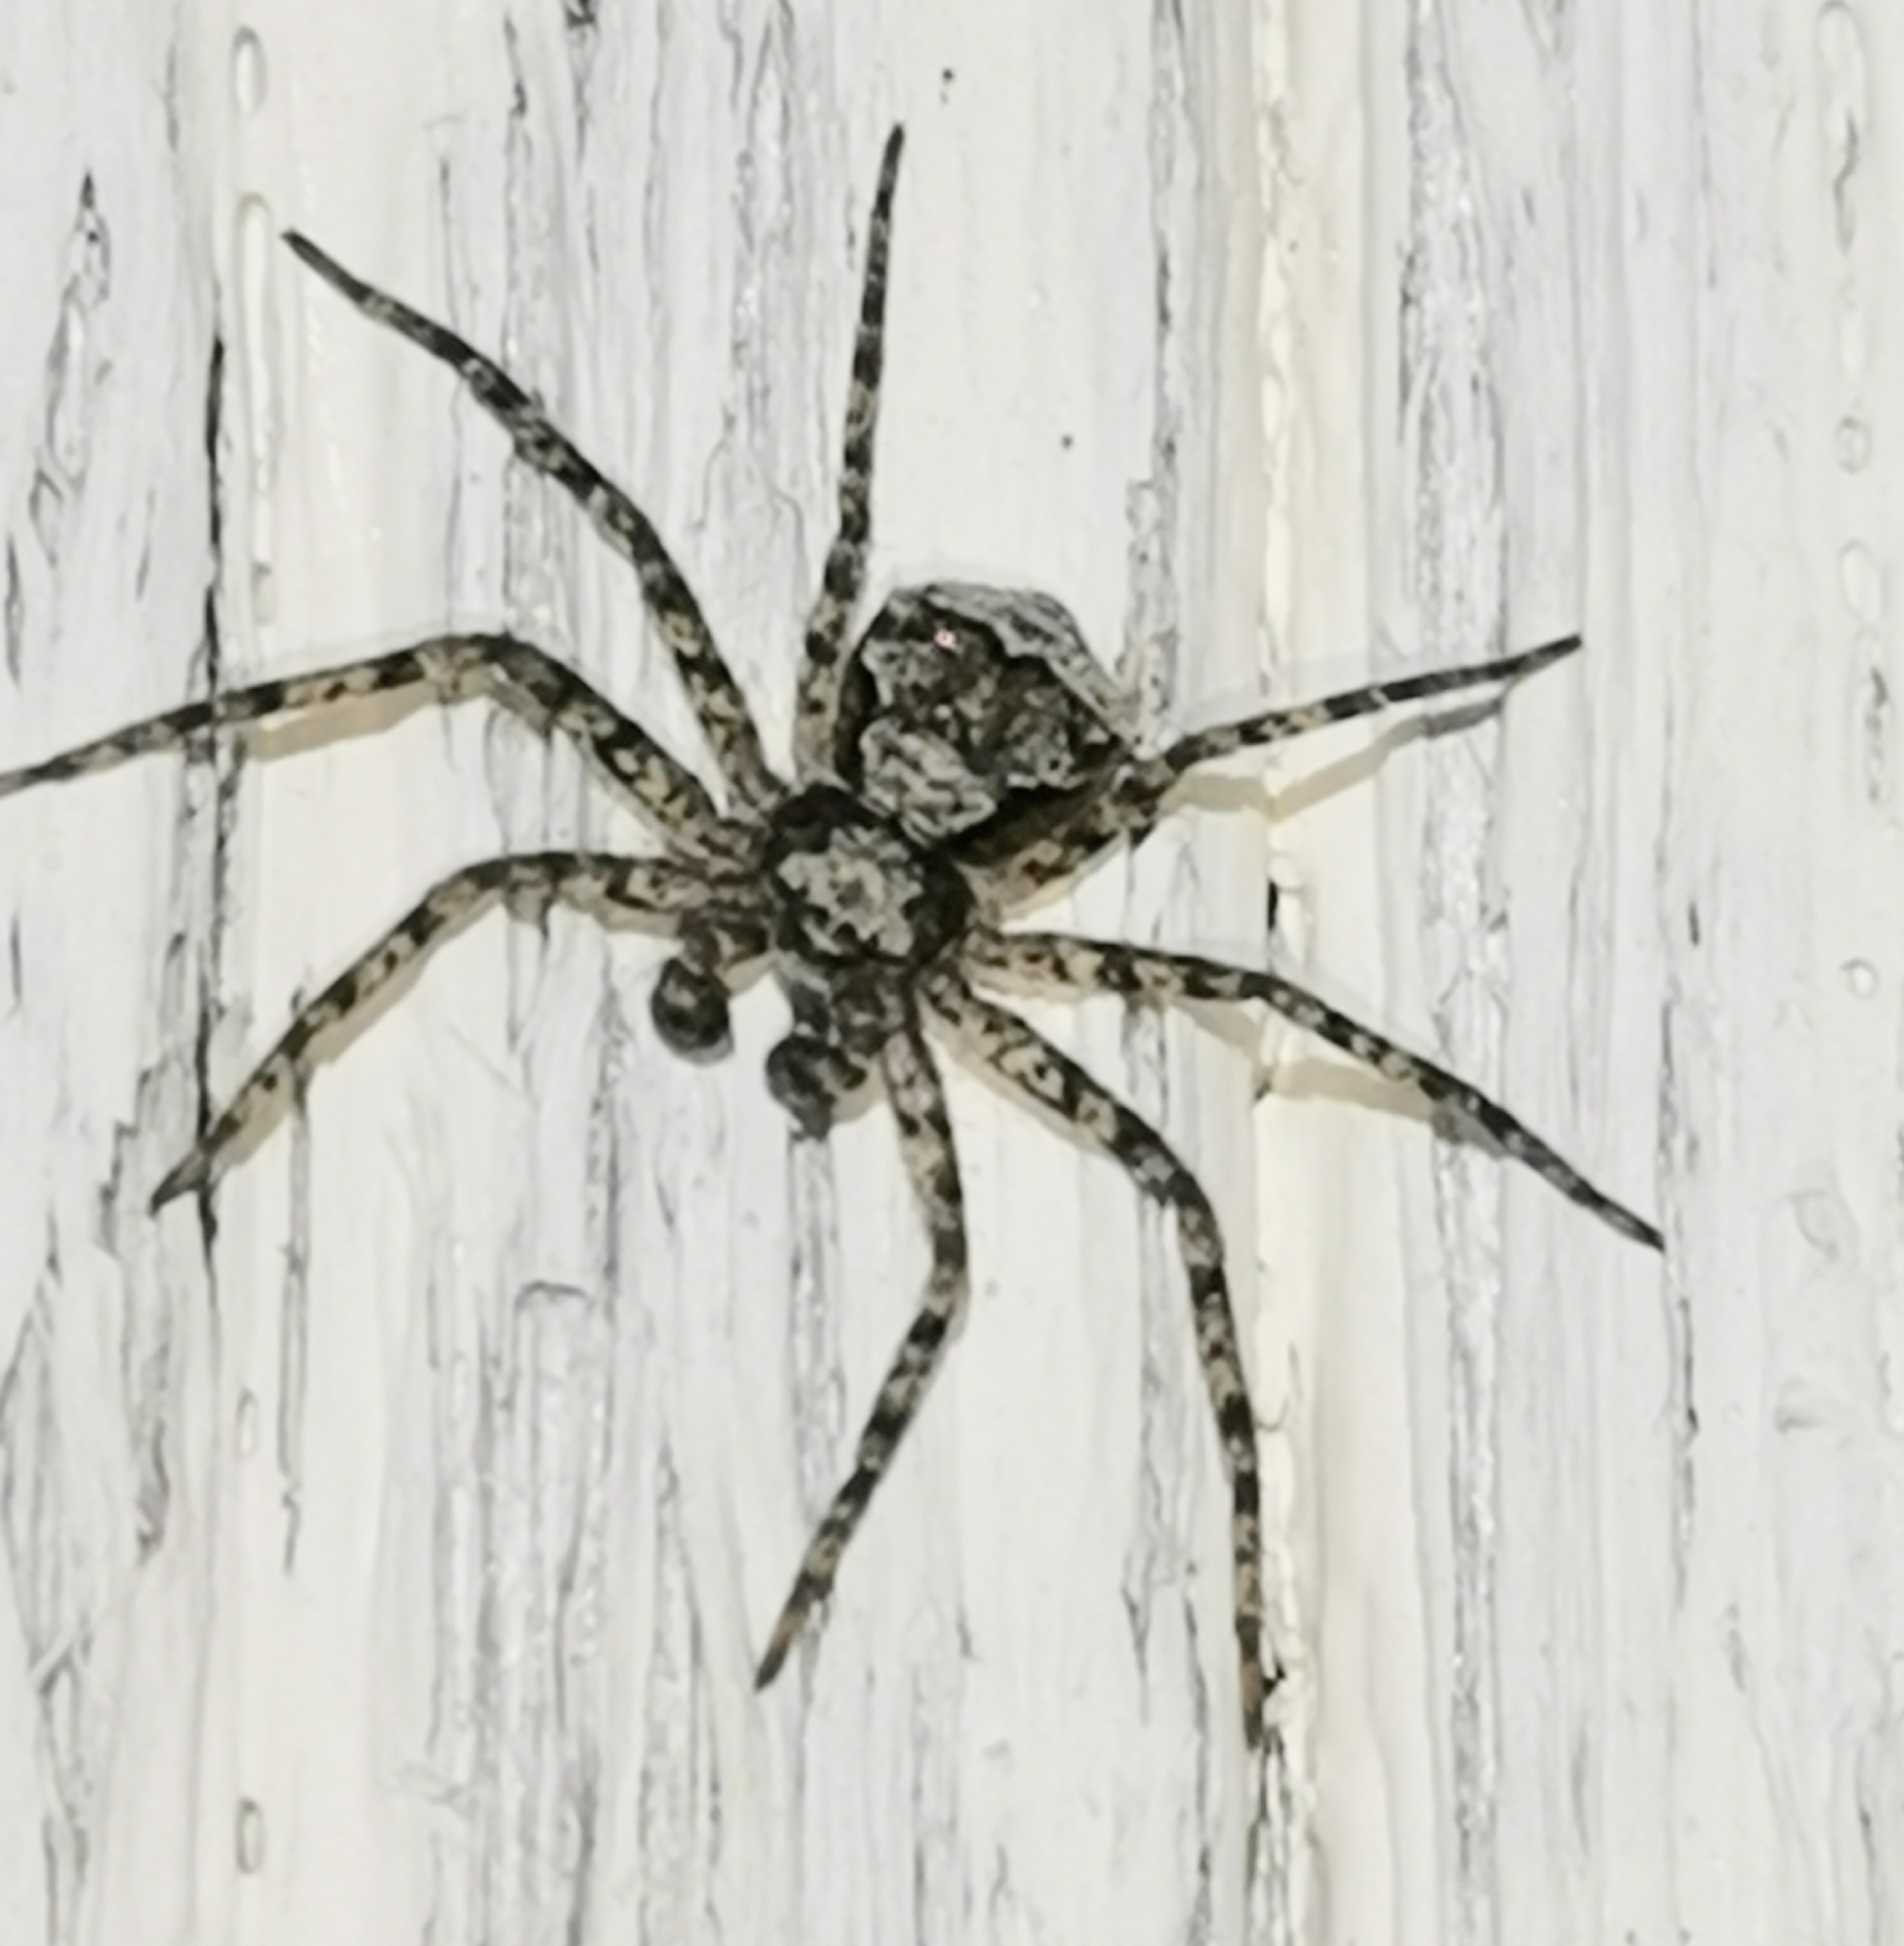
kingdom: Animalia
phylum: Arthropoda
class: Arachnida
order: Araneae
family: Philodromidae
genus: Philodromus
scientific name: Philodromus poecilus
